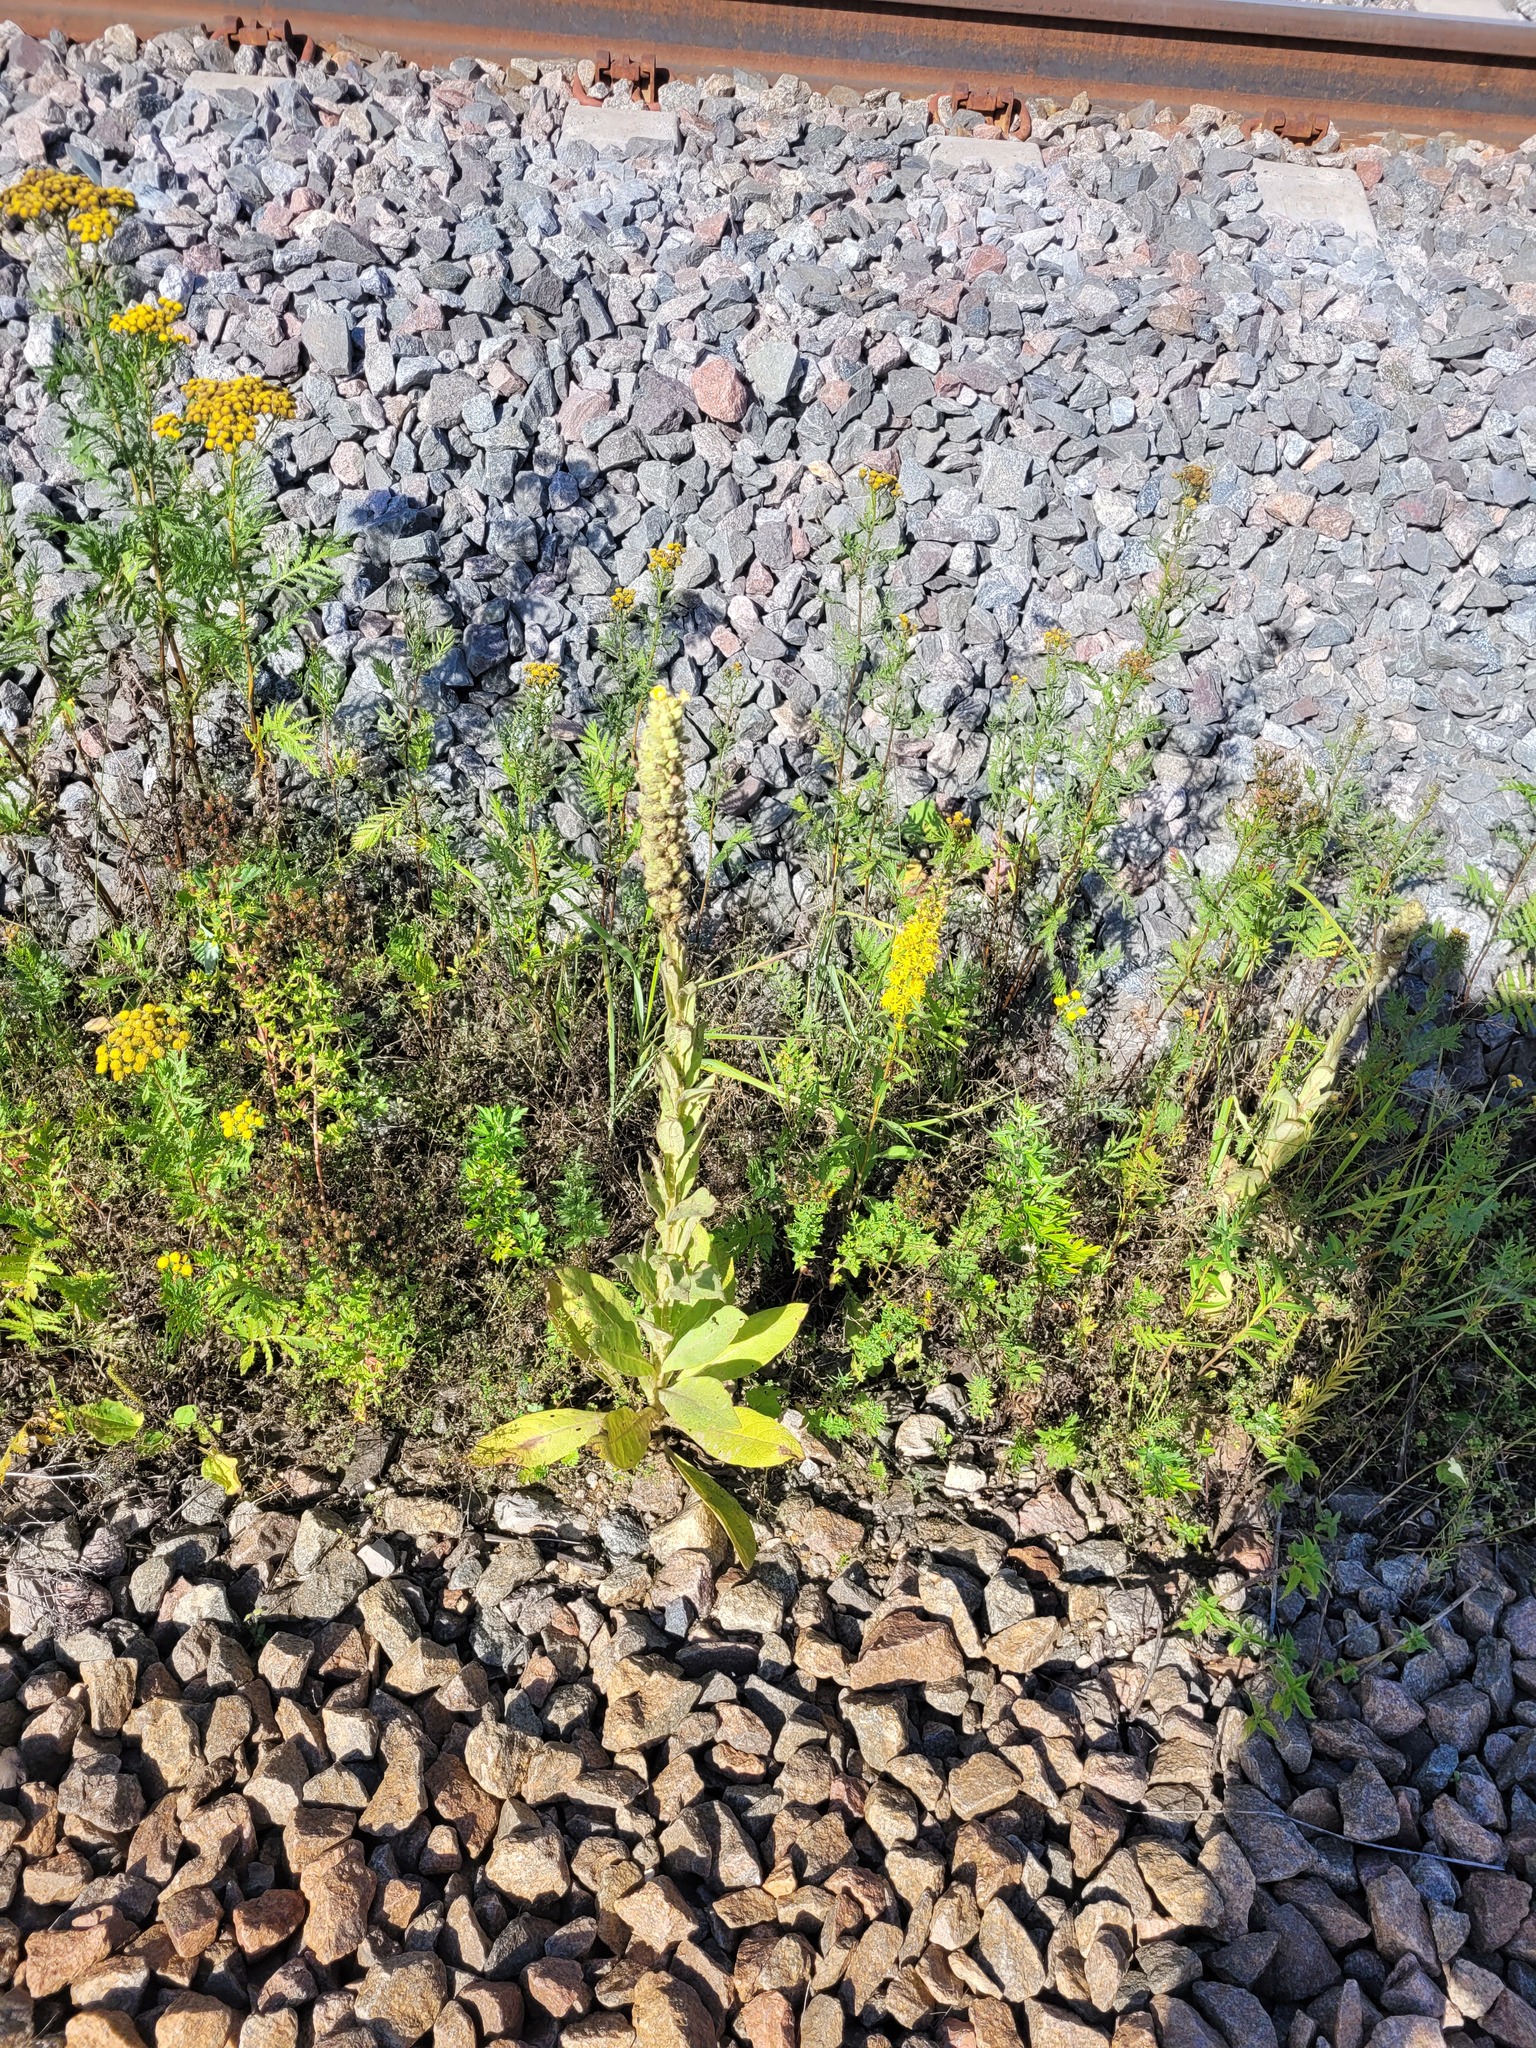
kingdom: Plantae
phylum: Tracheophyta
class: Magnoliopsida
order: Lamiales
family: Scrophulariaceae
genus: Verbascum
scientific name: Verbascum thapsus
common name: Common mullein
